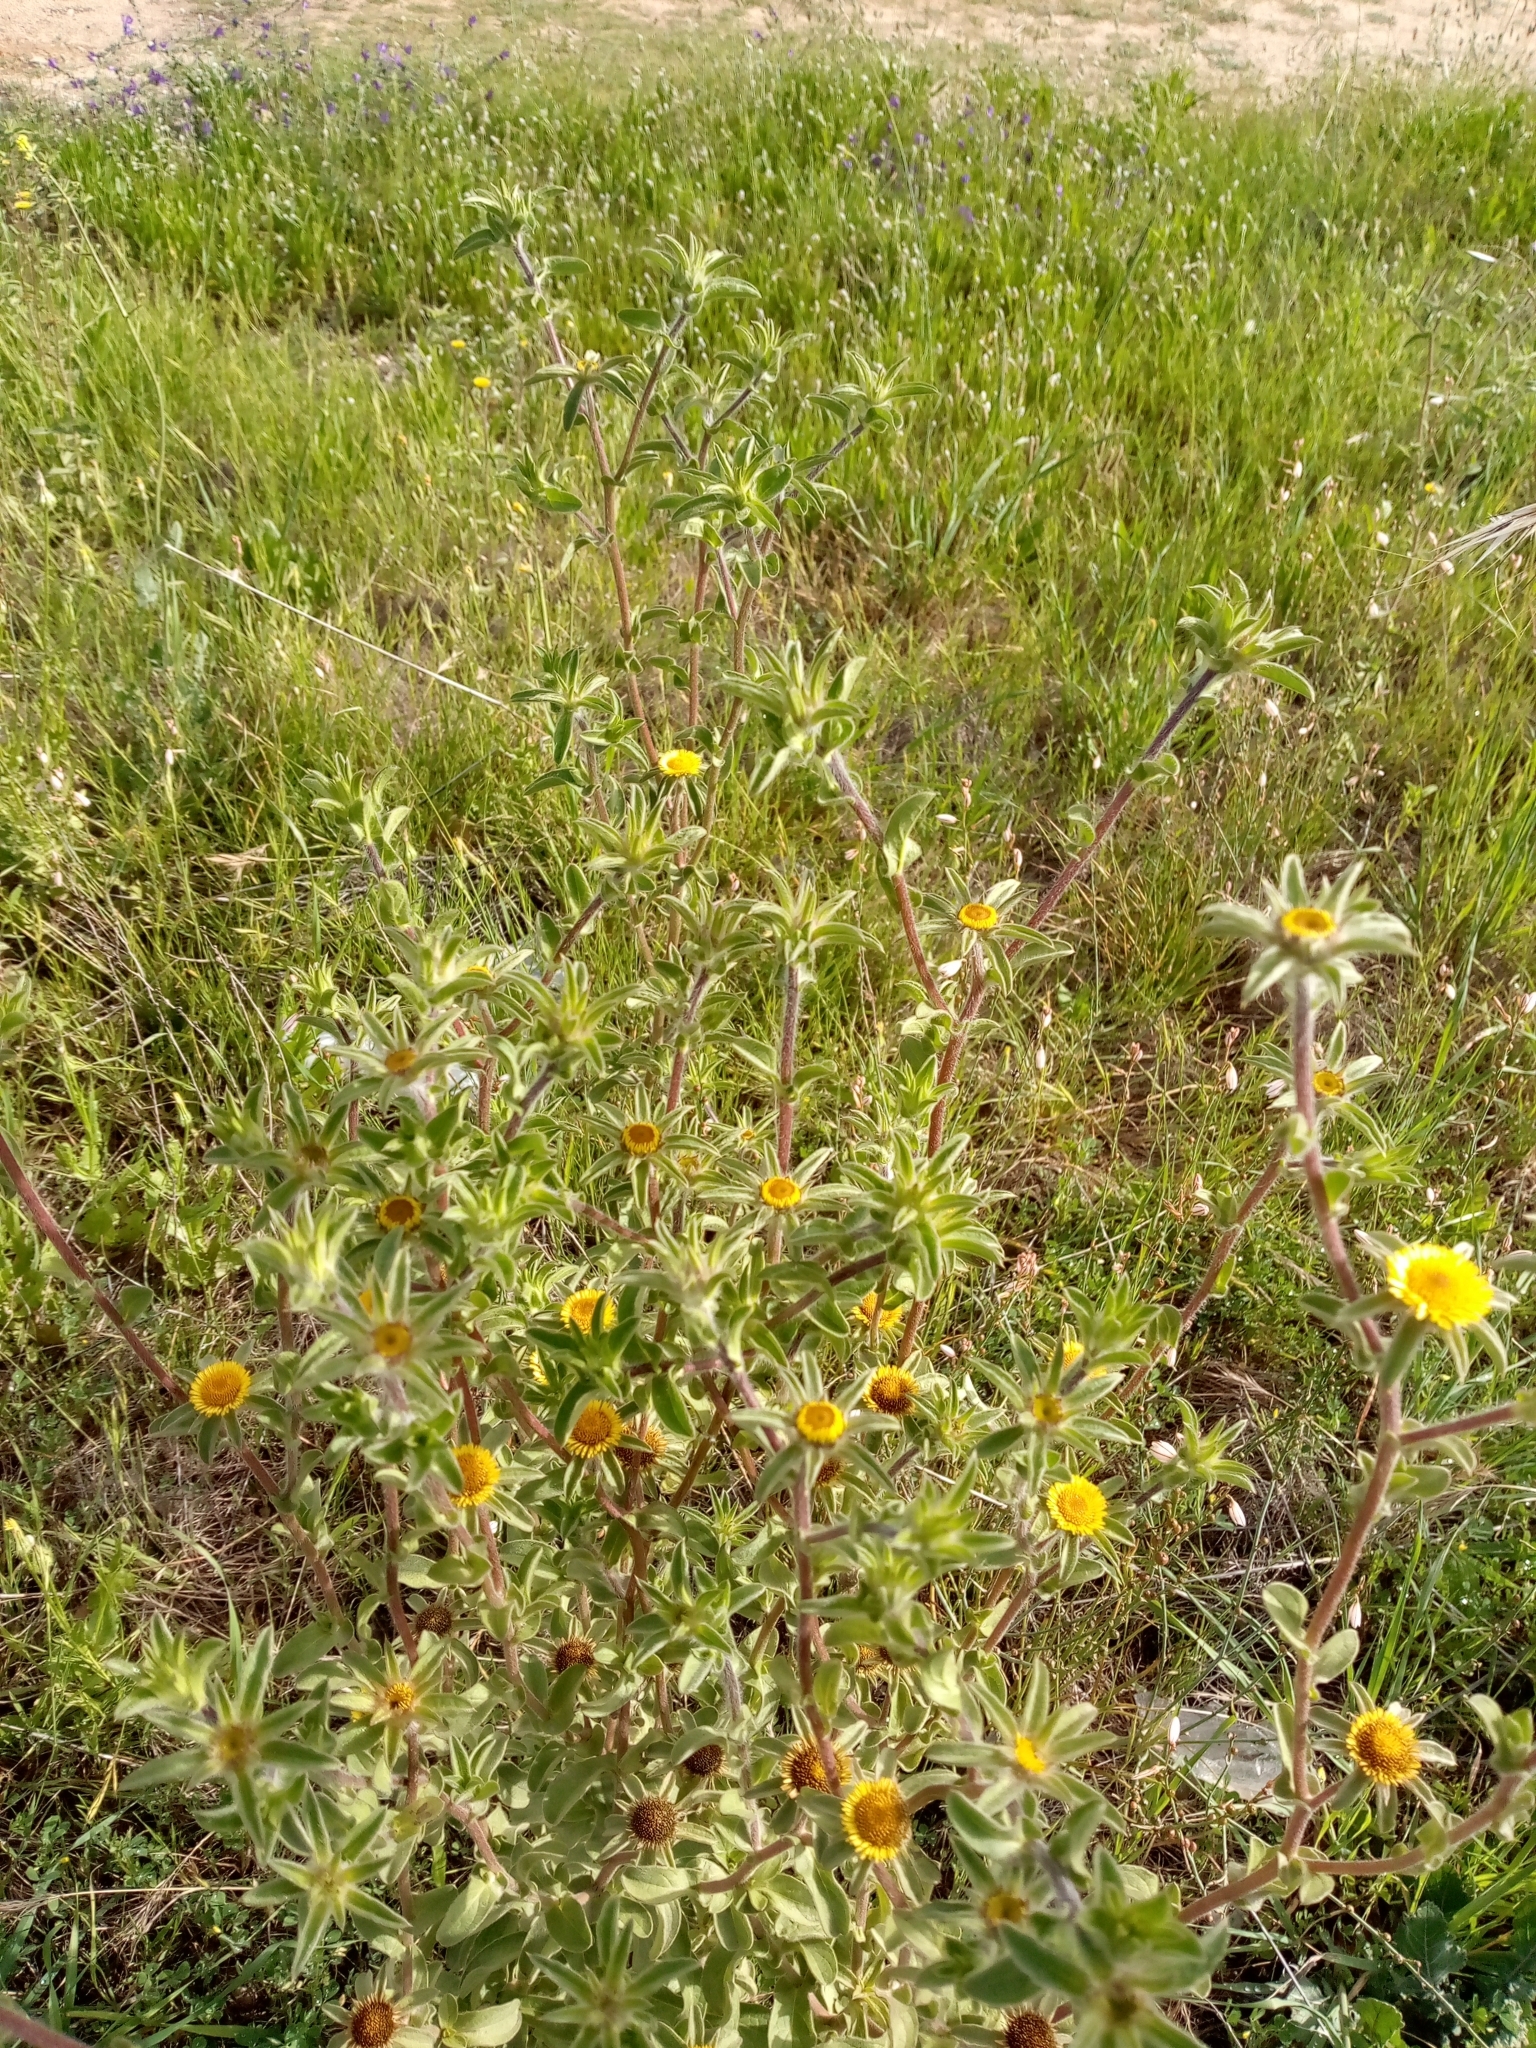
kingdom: Plantae
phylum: Tracheophyta
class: Magnoliopsida
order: Asterales
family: Asteraceae
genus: Pallenis
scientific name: Pallenis spinosa
